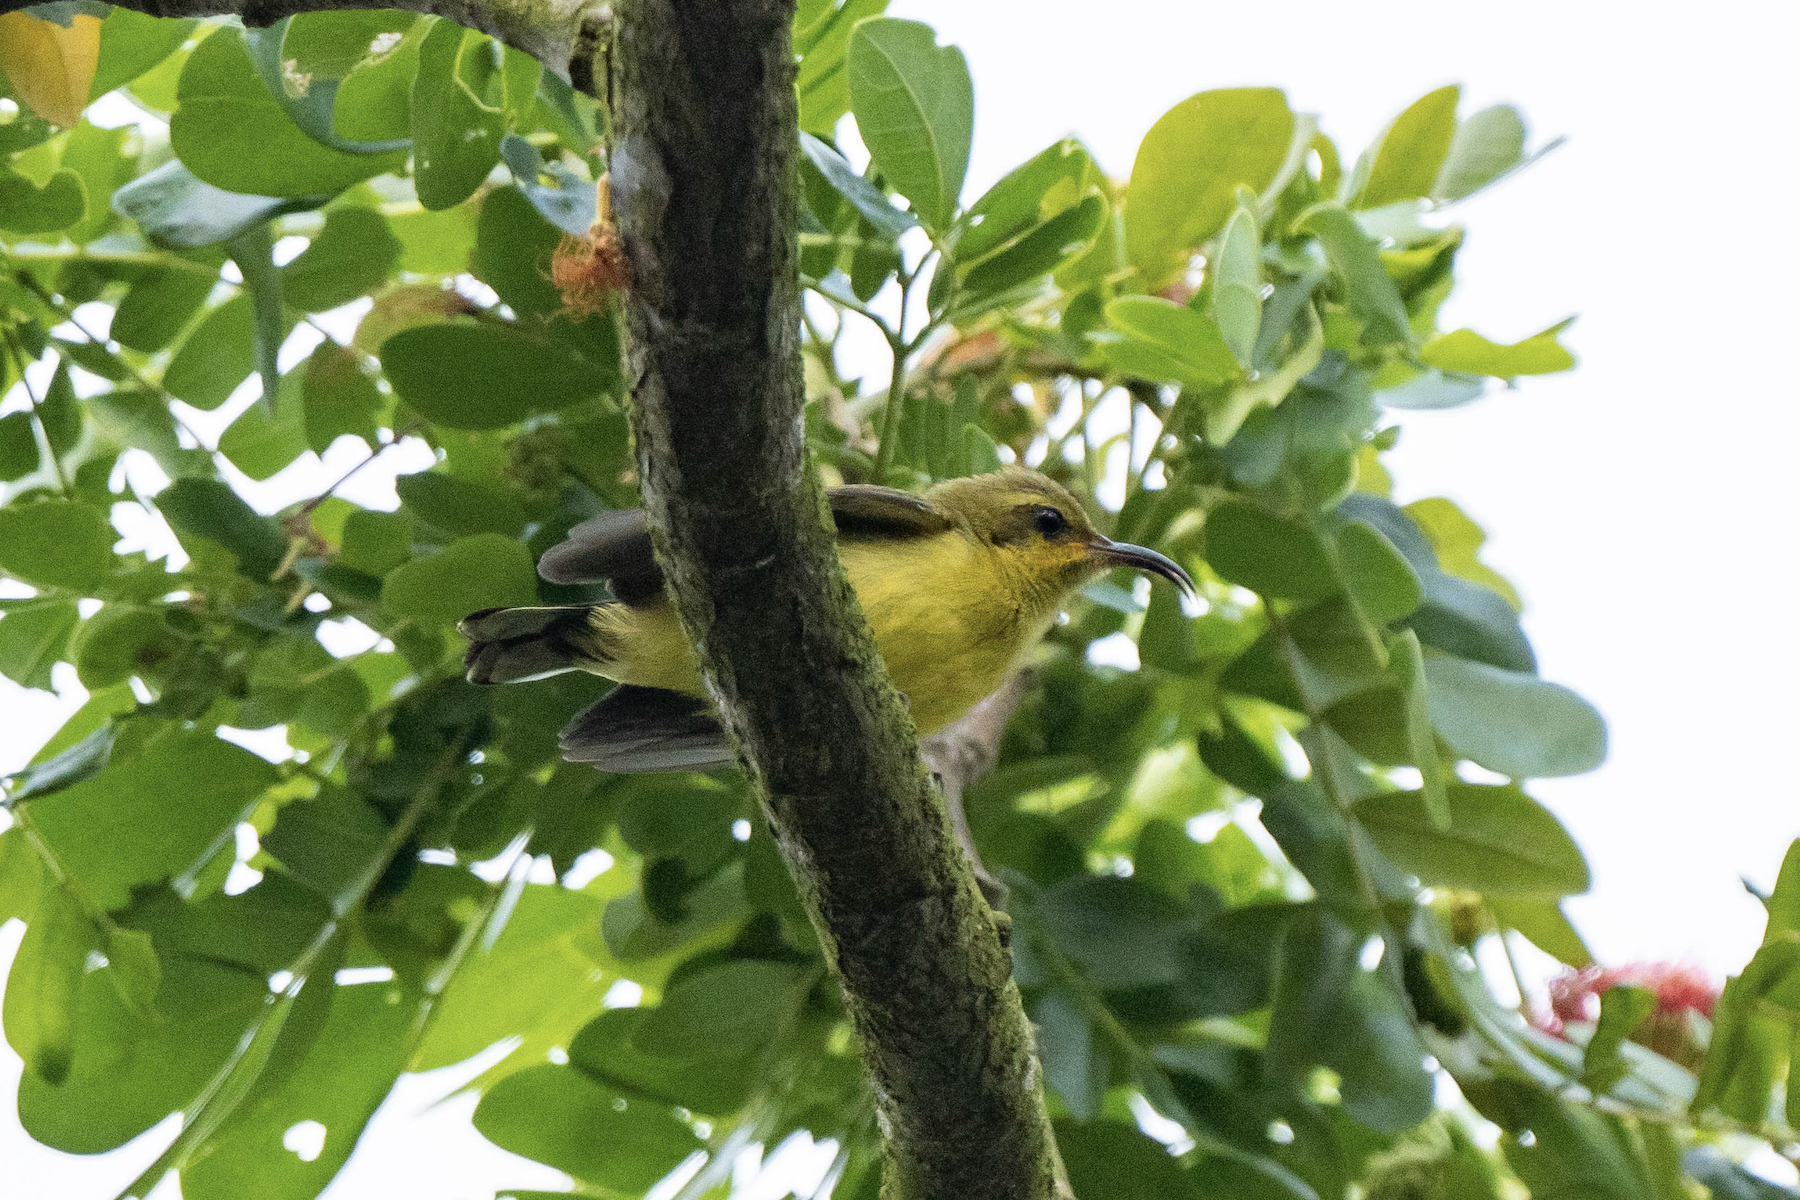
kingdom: Animalia
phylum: Chordata
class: Aves
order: Passeriformes
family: Nectariniidae
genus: Cinnyris
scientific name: Cinnyris
